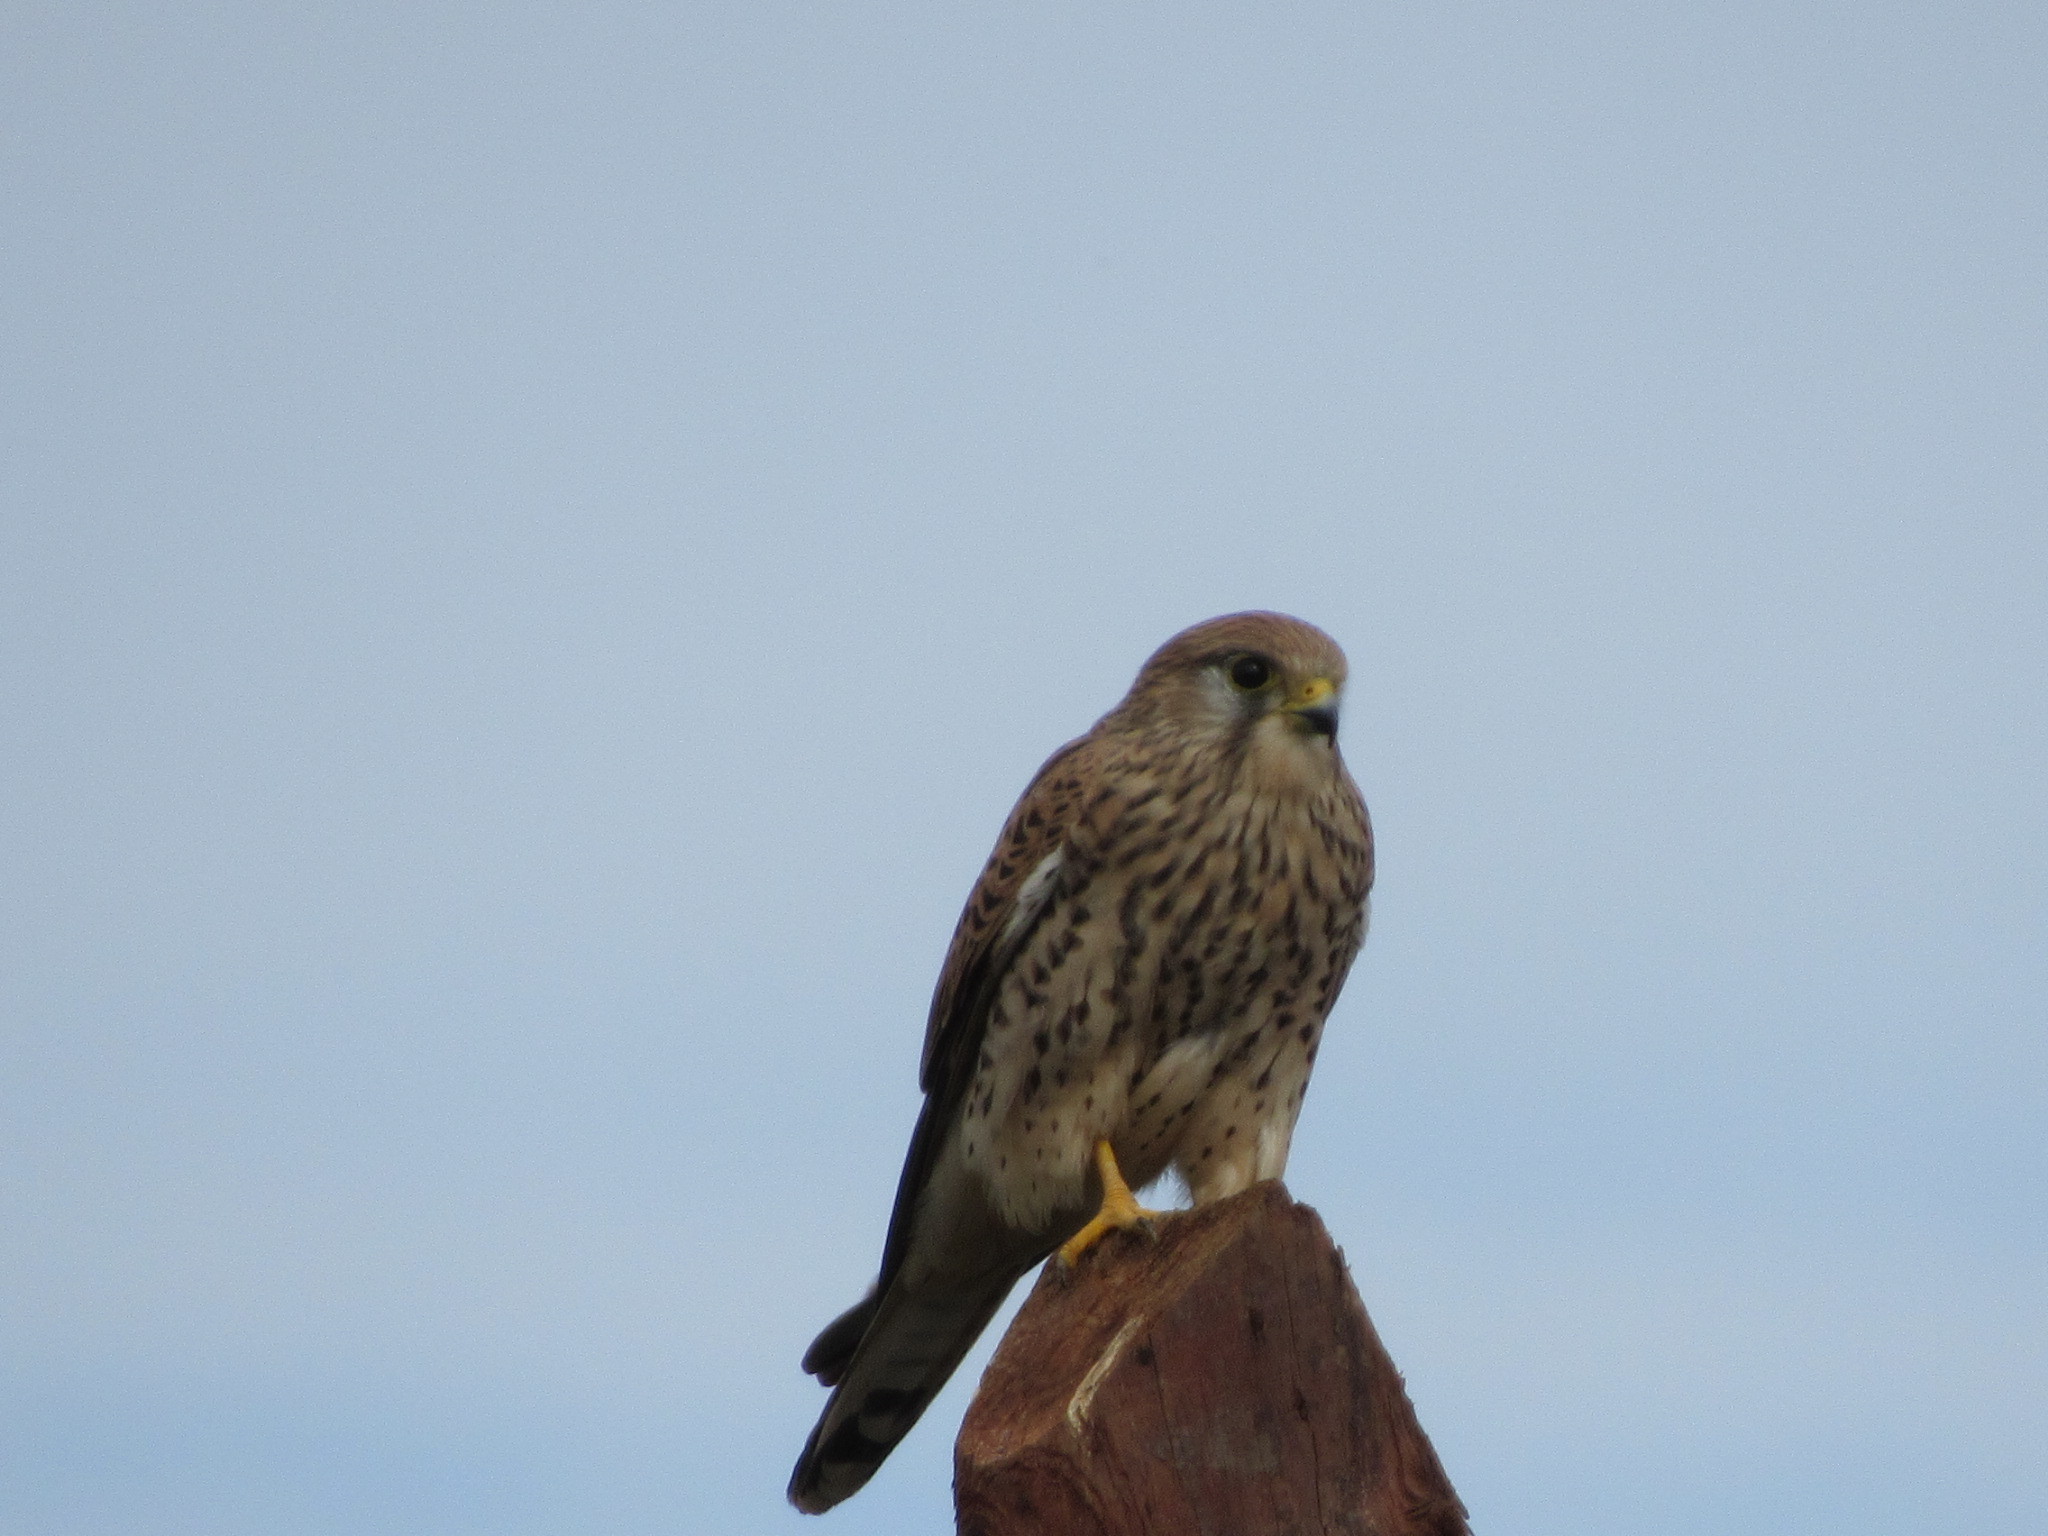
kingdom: Animalia
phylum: Chordata
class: Aves
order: Falconiformes
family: Falconidae
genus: Falco
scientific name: Falco tinnunculus
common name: Common kestrel
